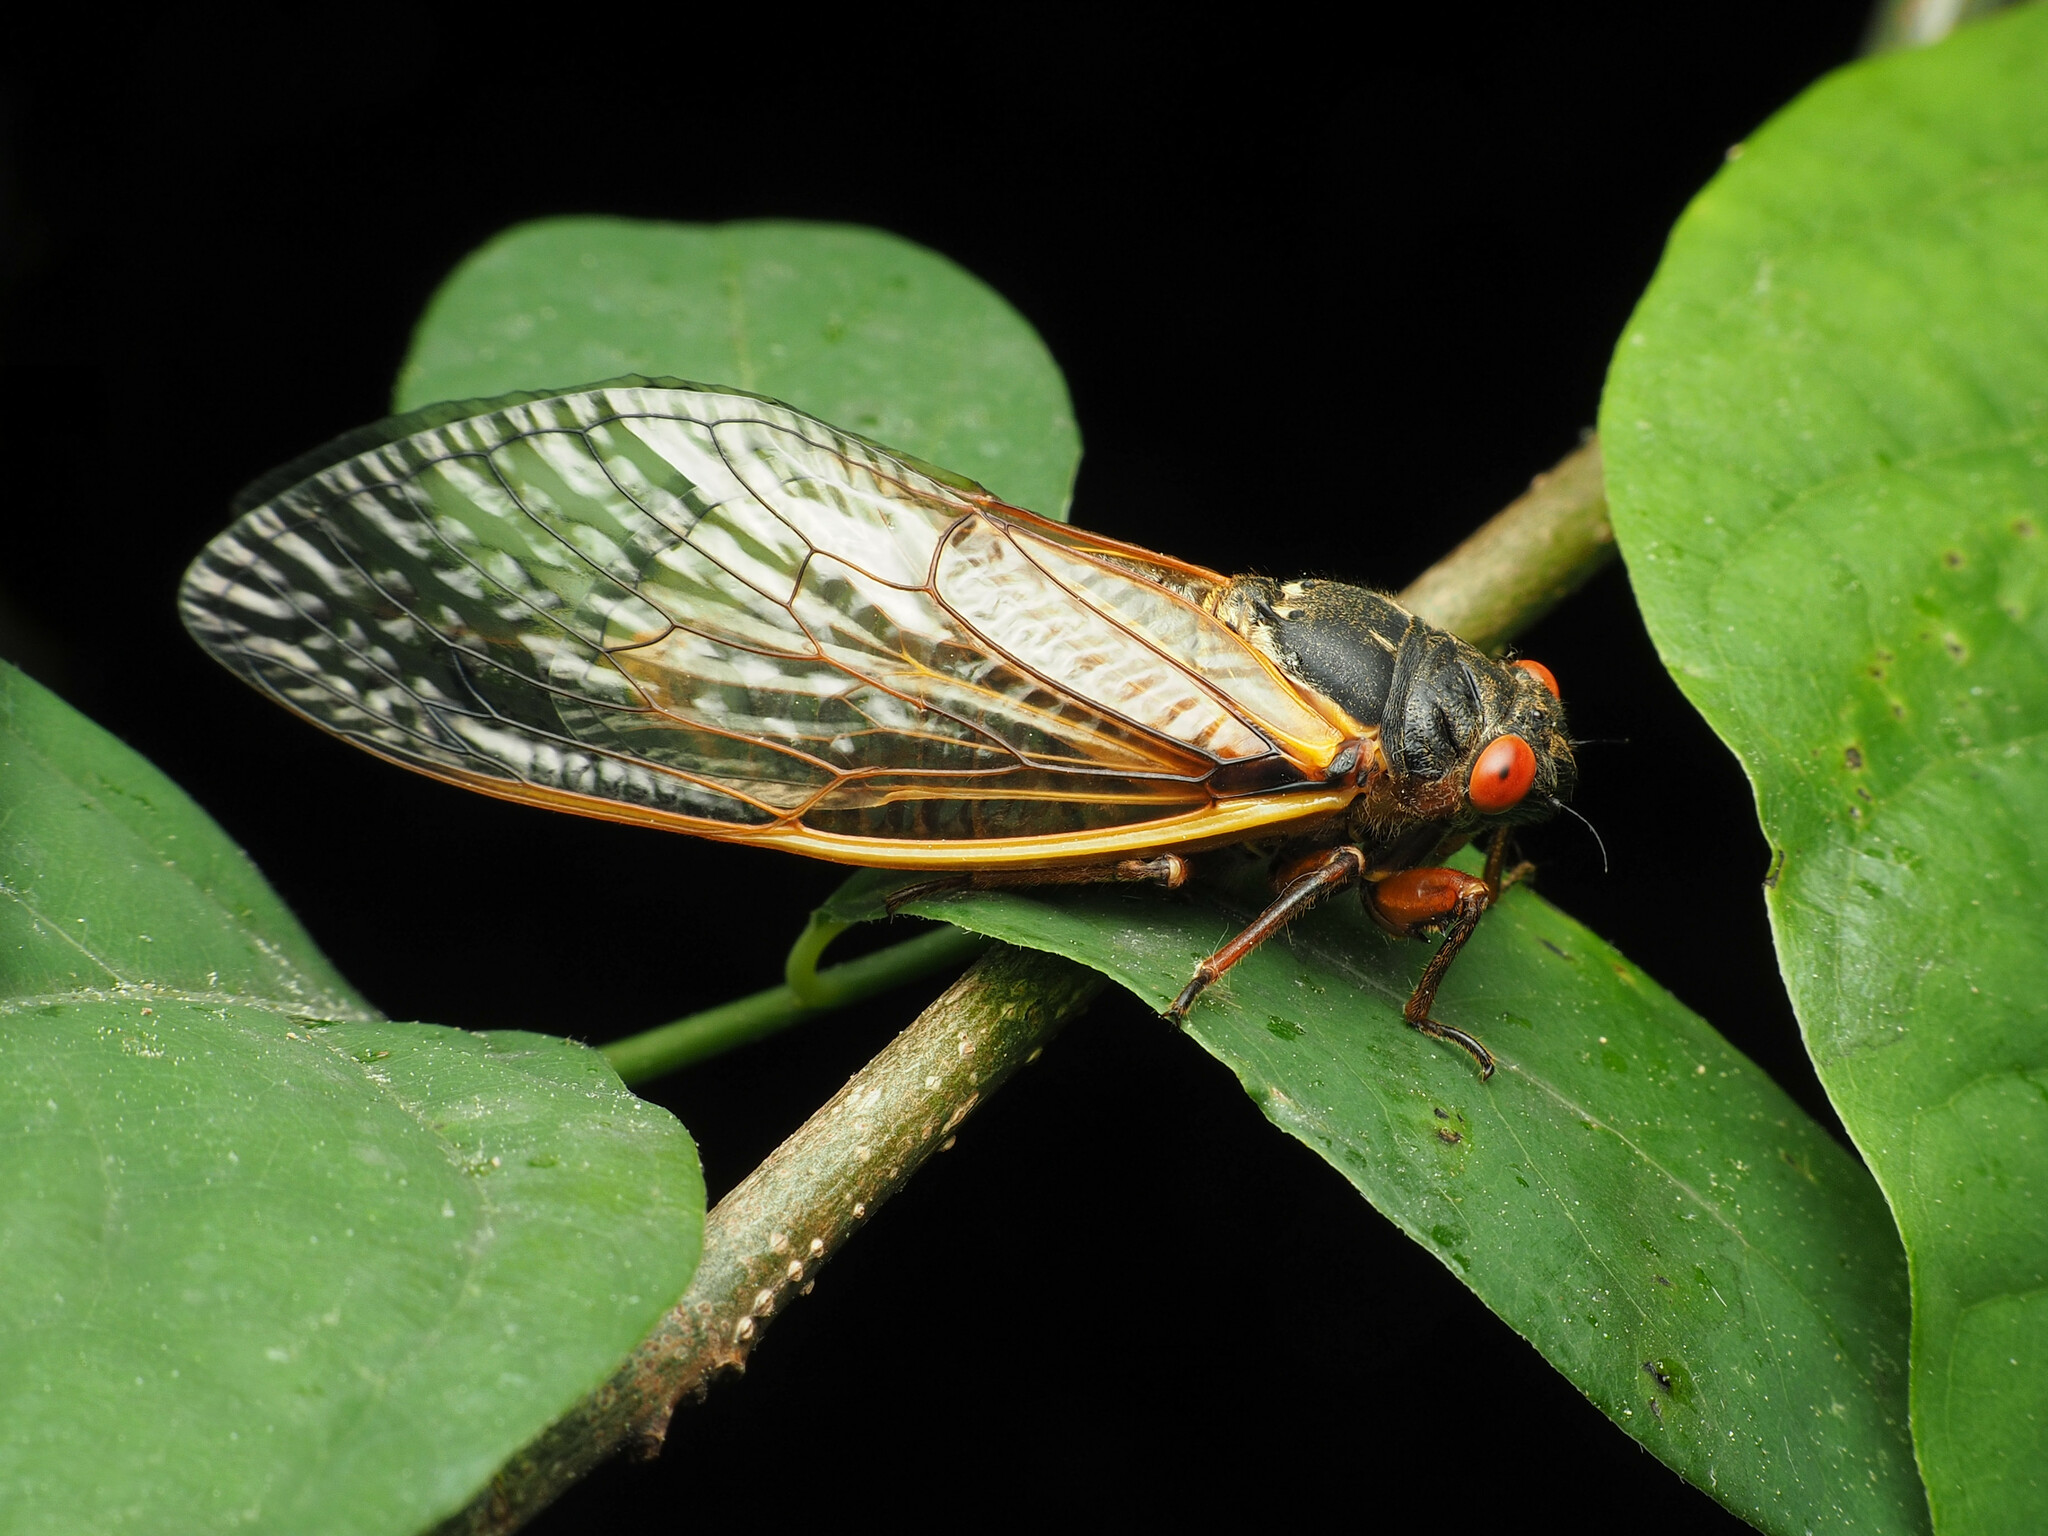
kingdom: Animalia
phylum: Arthropoda
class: Insecta
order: Hemiptera
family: Cicadidae
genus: Magicicada
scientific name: Magicicada septendecim
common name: Periodical cicada
